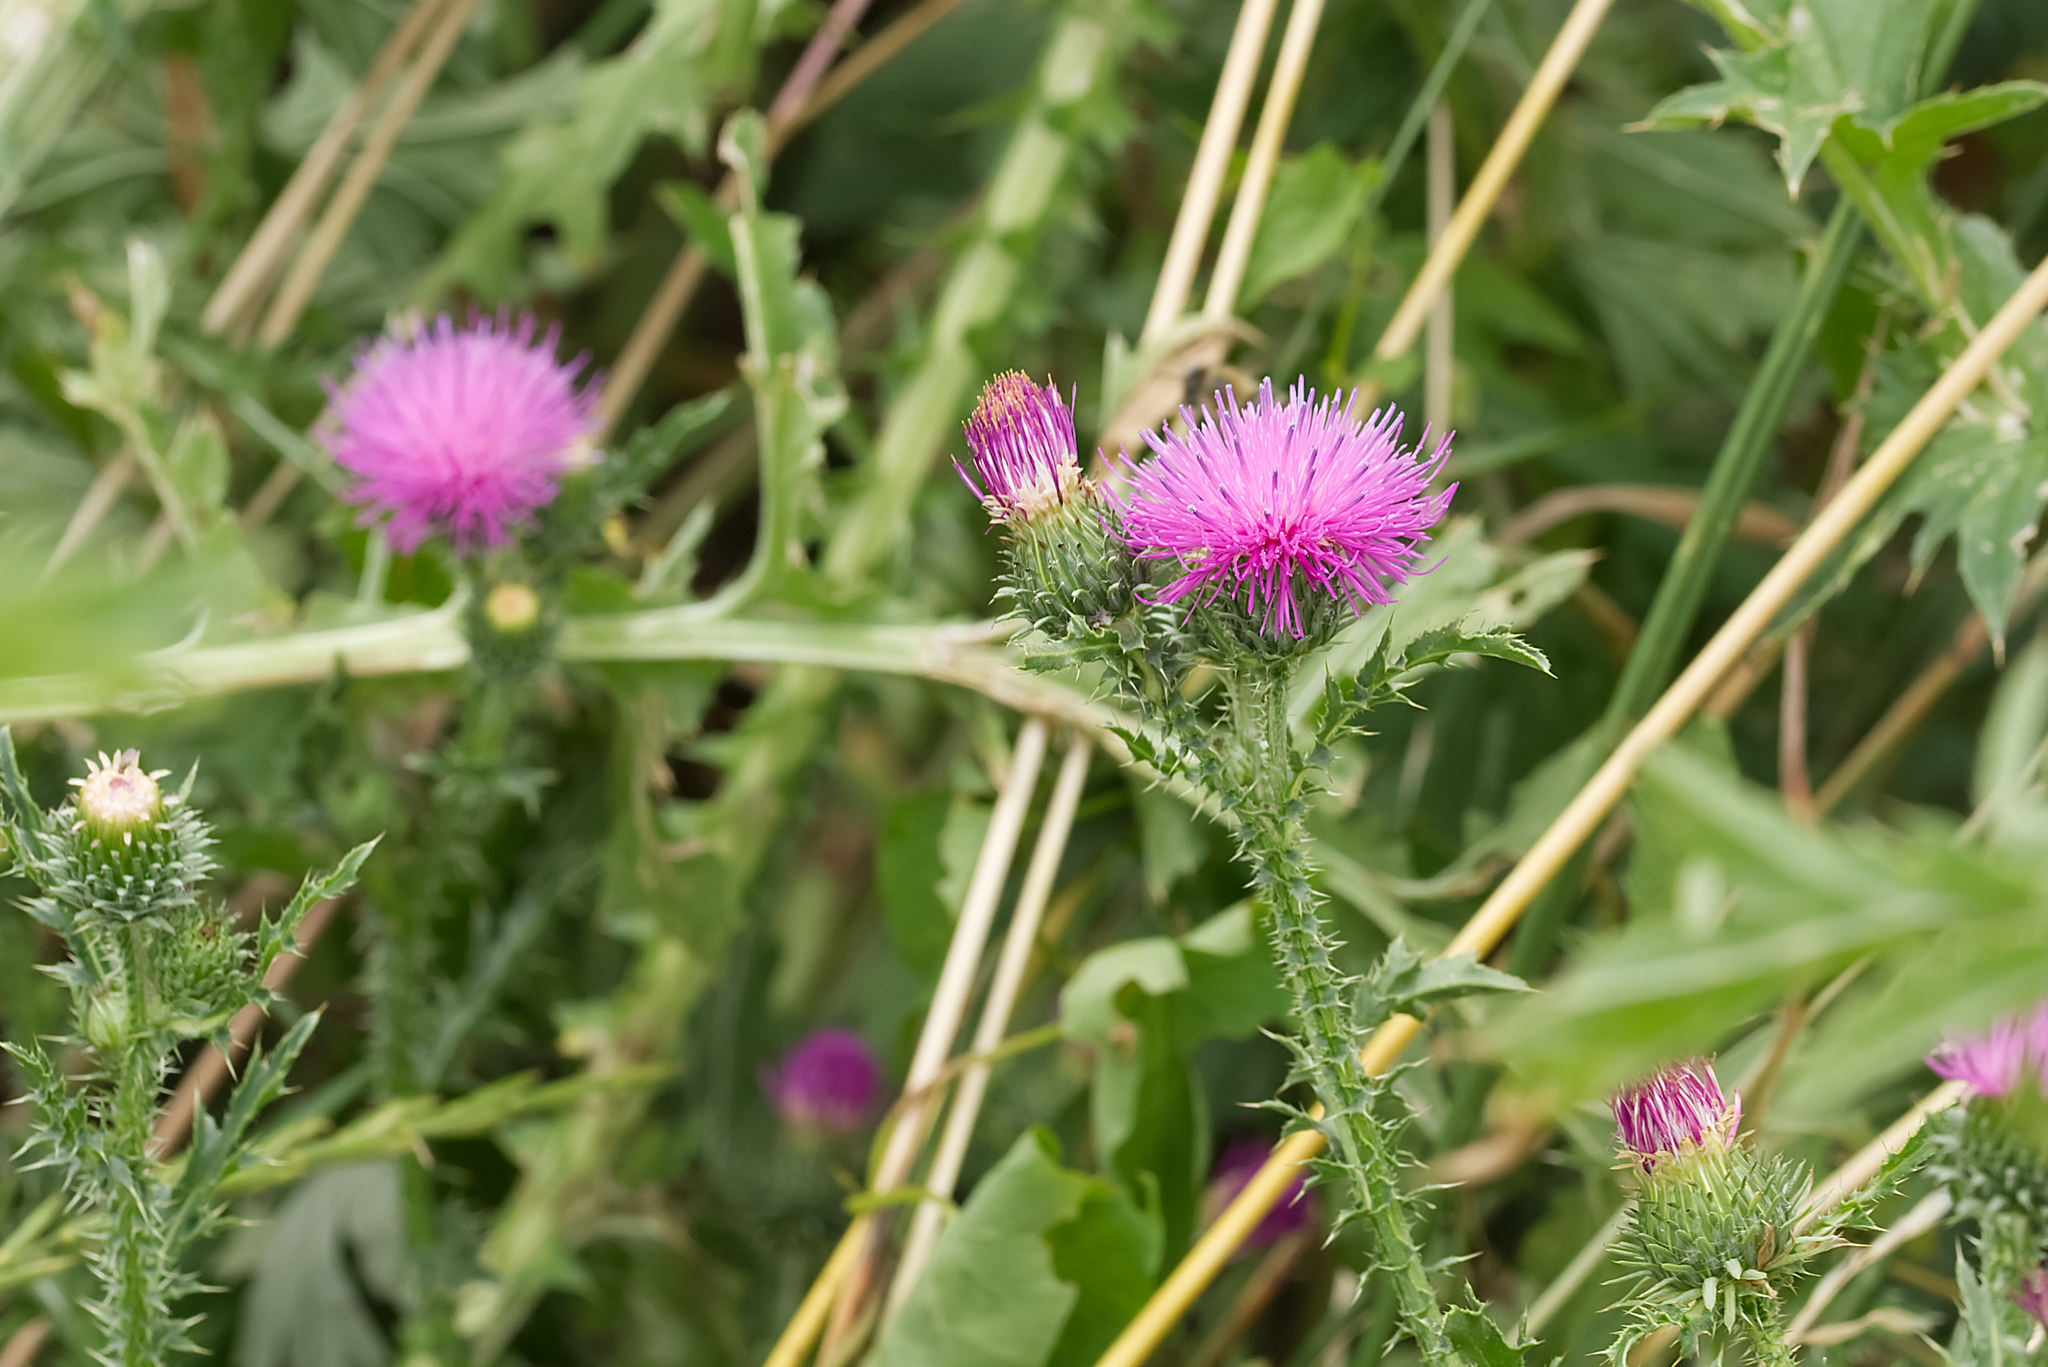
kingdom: Plantae
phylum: Tracheophyta
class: Magnoliopsida
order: Asterales
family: Asteraceae
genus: Carduus
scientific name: Carduus acanthoides
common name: Plumeless thistle
